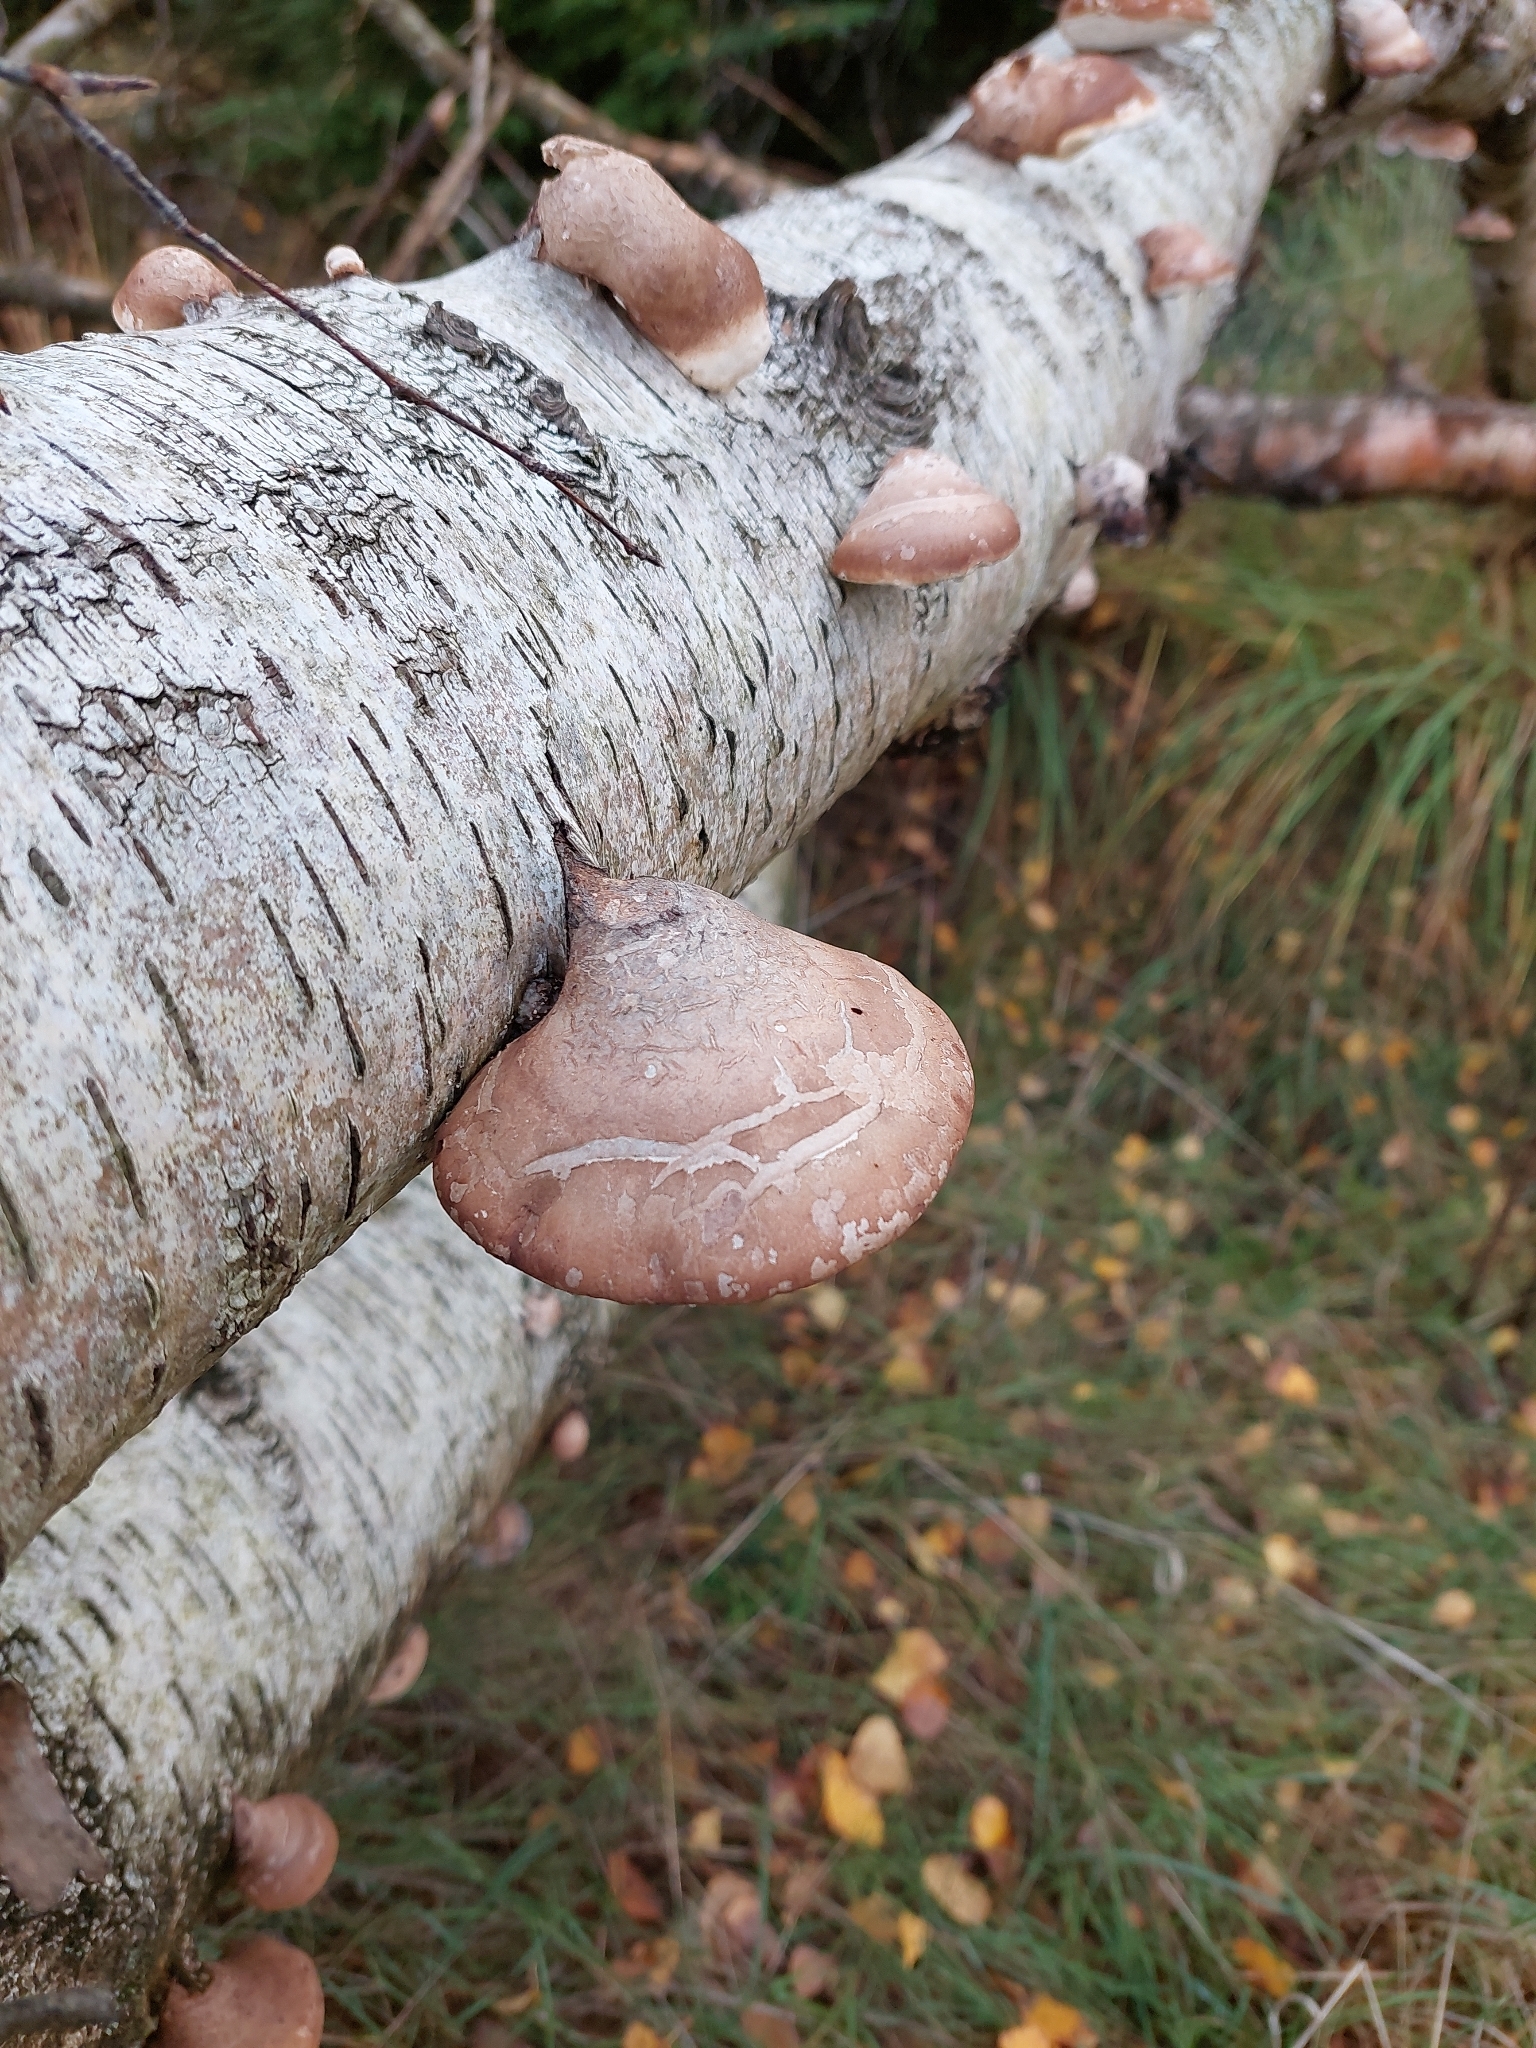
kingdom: Fungi
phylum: Basidiomycota
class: Agaricomycetes
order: Polyporales
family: Fomitopsidaceae
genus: Fomitopsis
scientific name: Fomitopsis betulina
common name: Birch polypore
